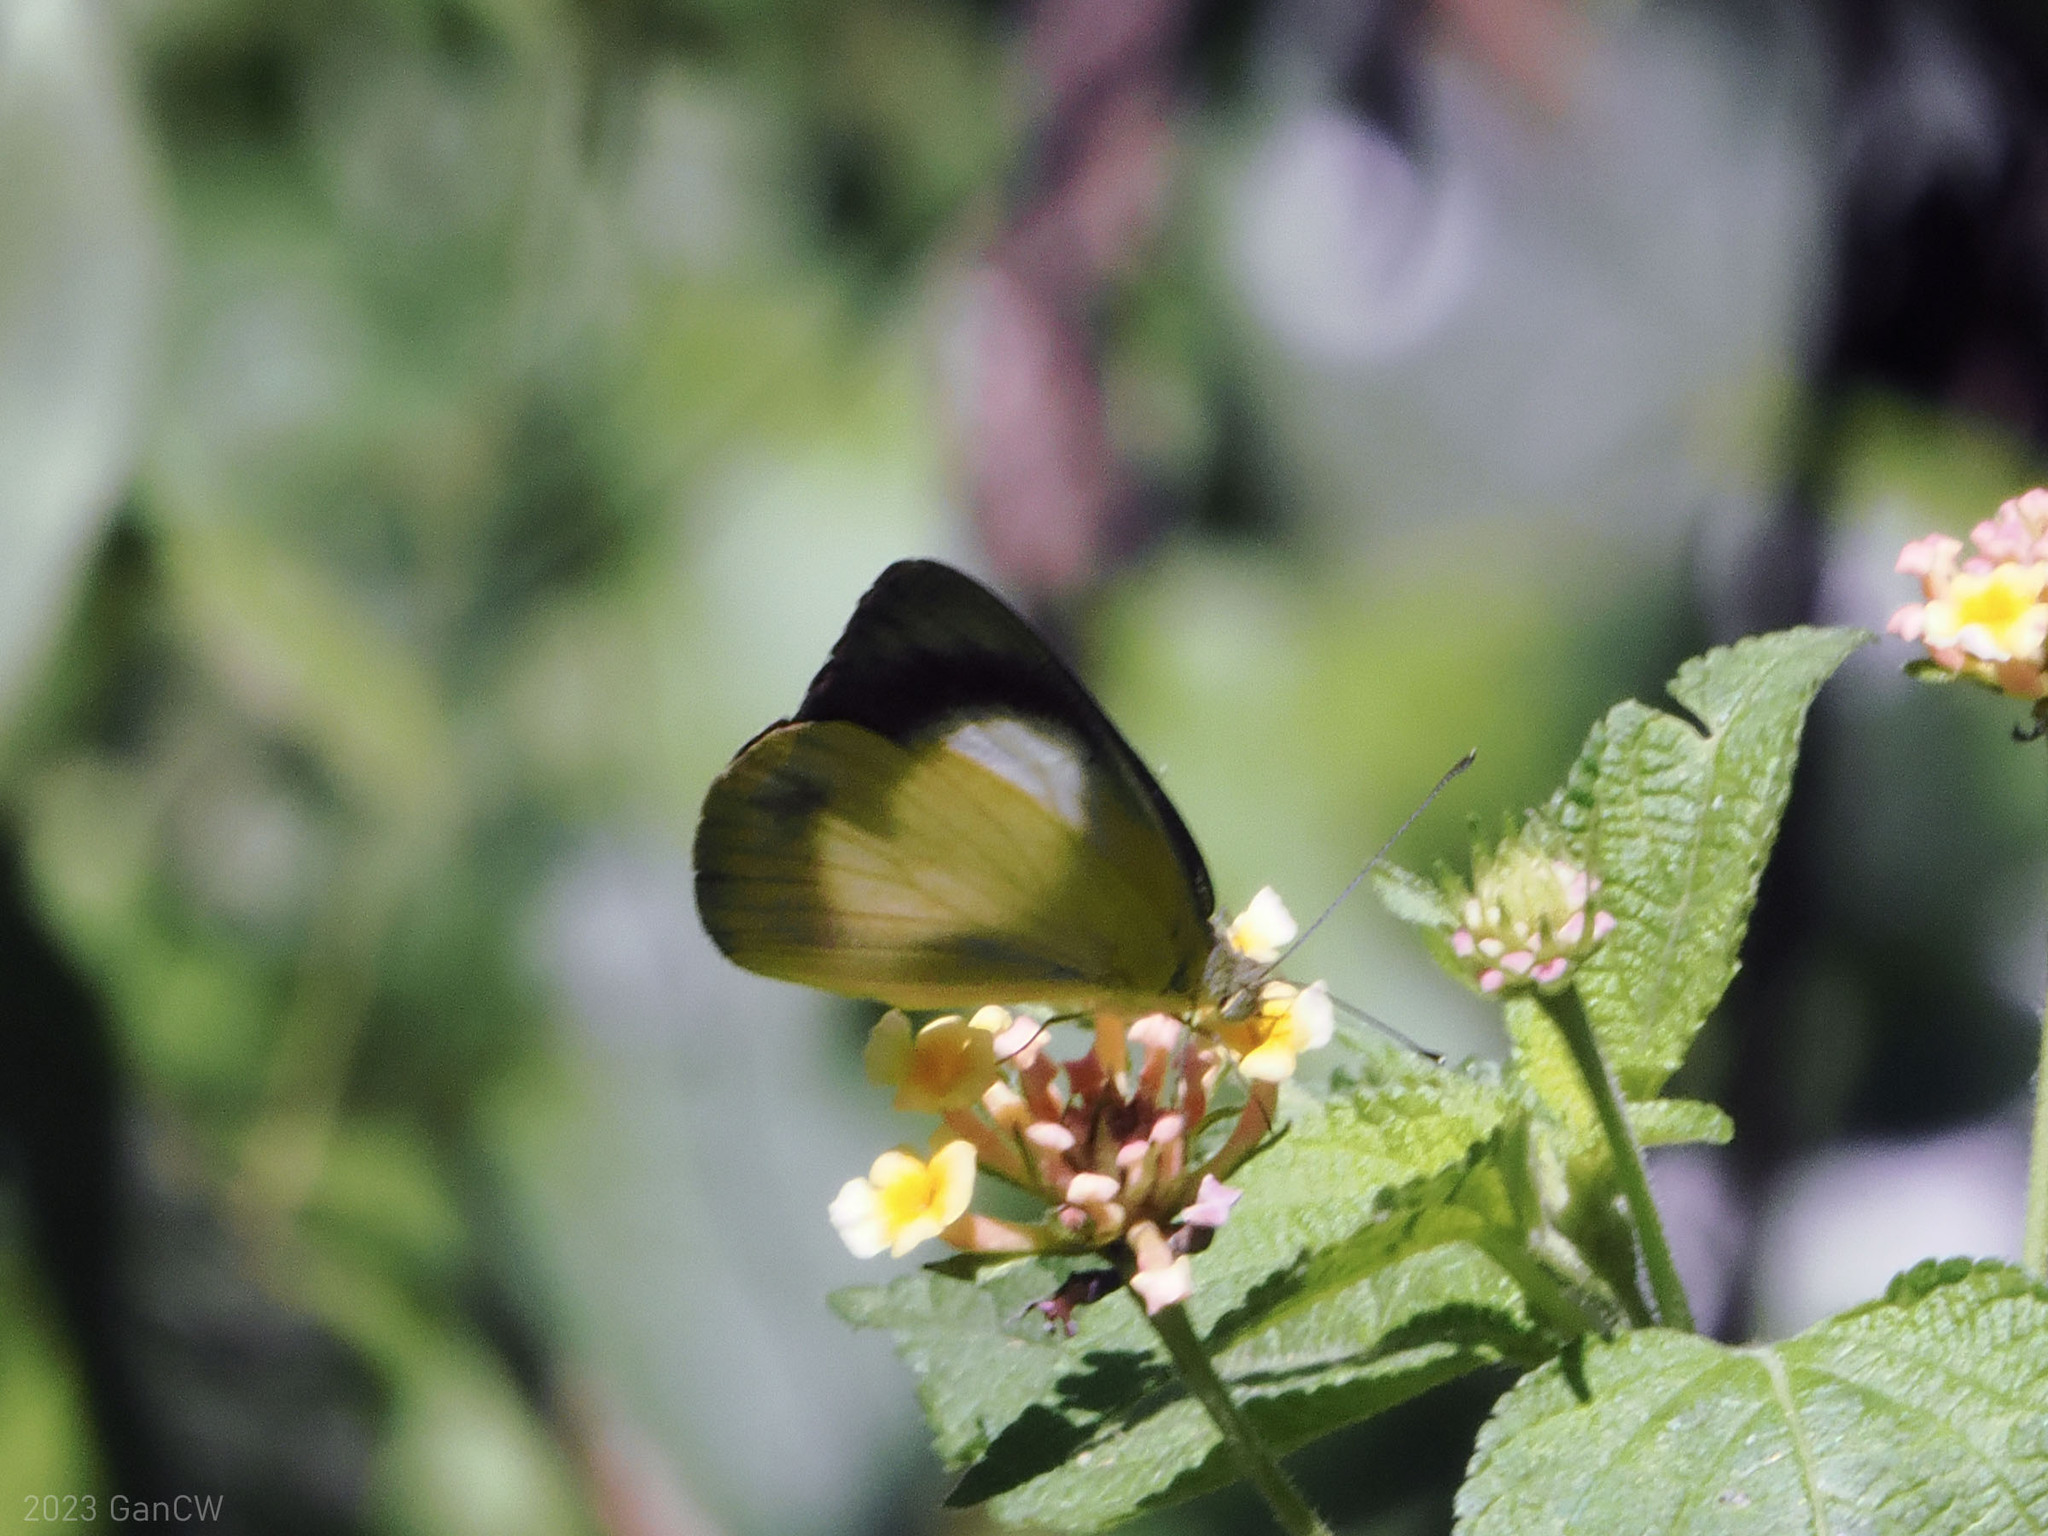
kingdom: Animalia
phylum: Arthropoda
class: Insecta
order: Lepidoptera
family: Pieridae
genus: Appias
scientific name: Appias phoebe
